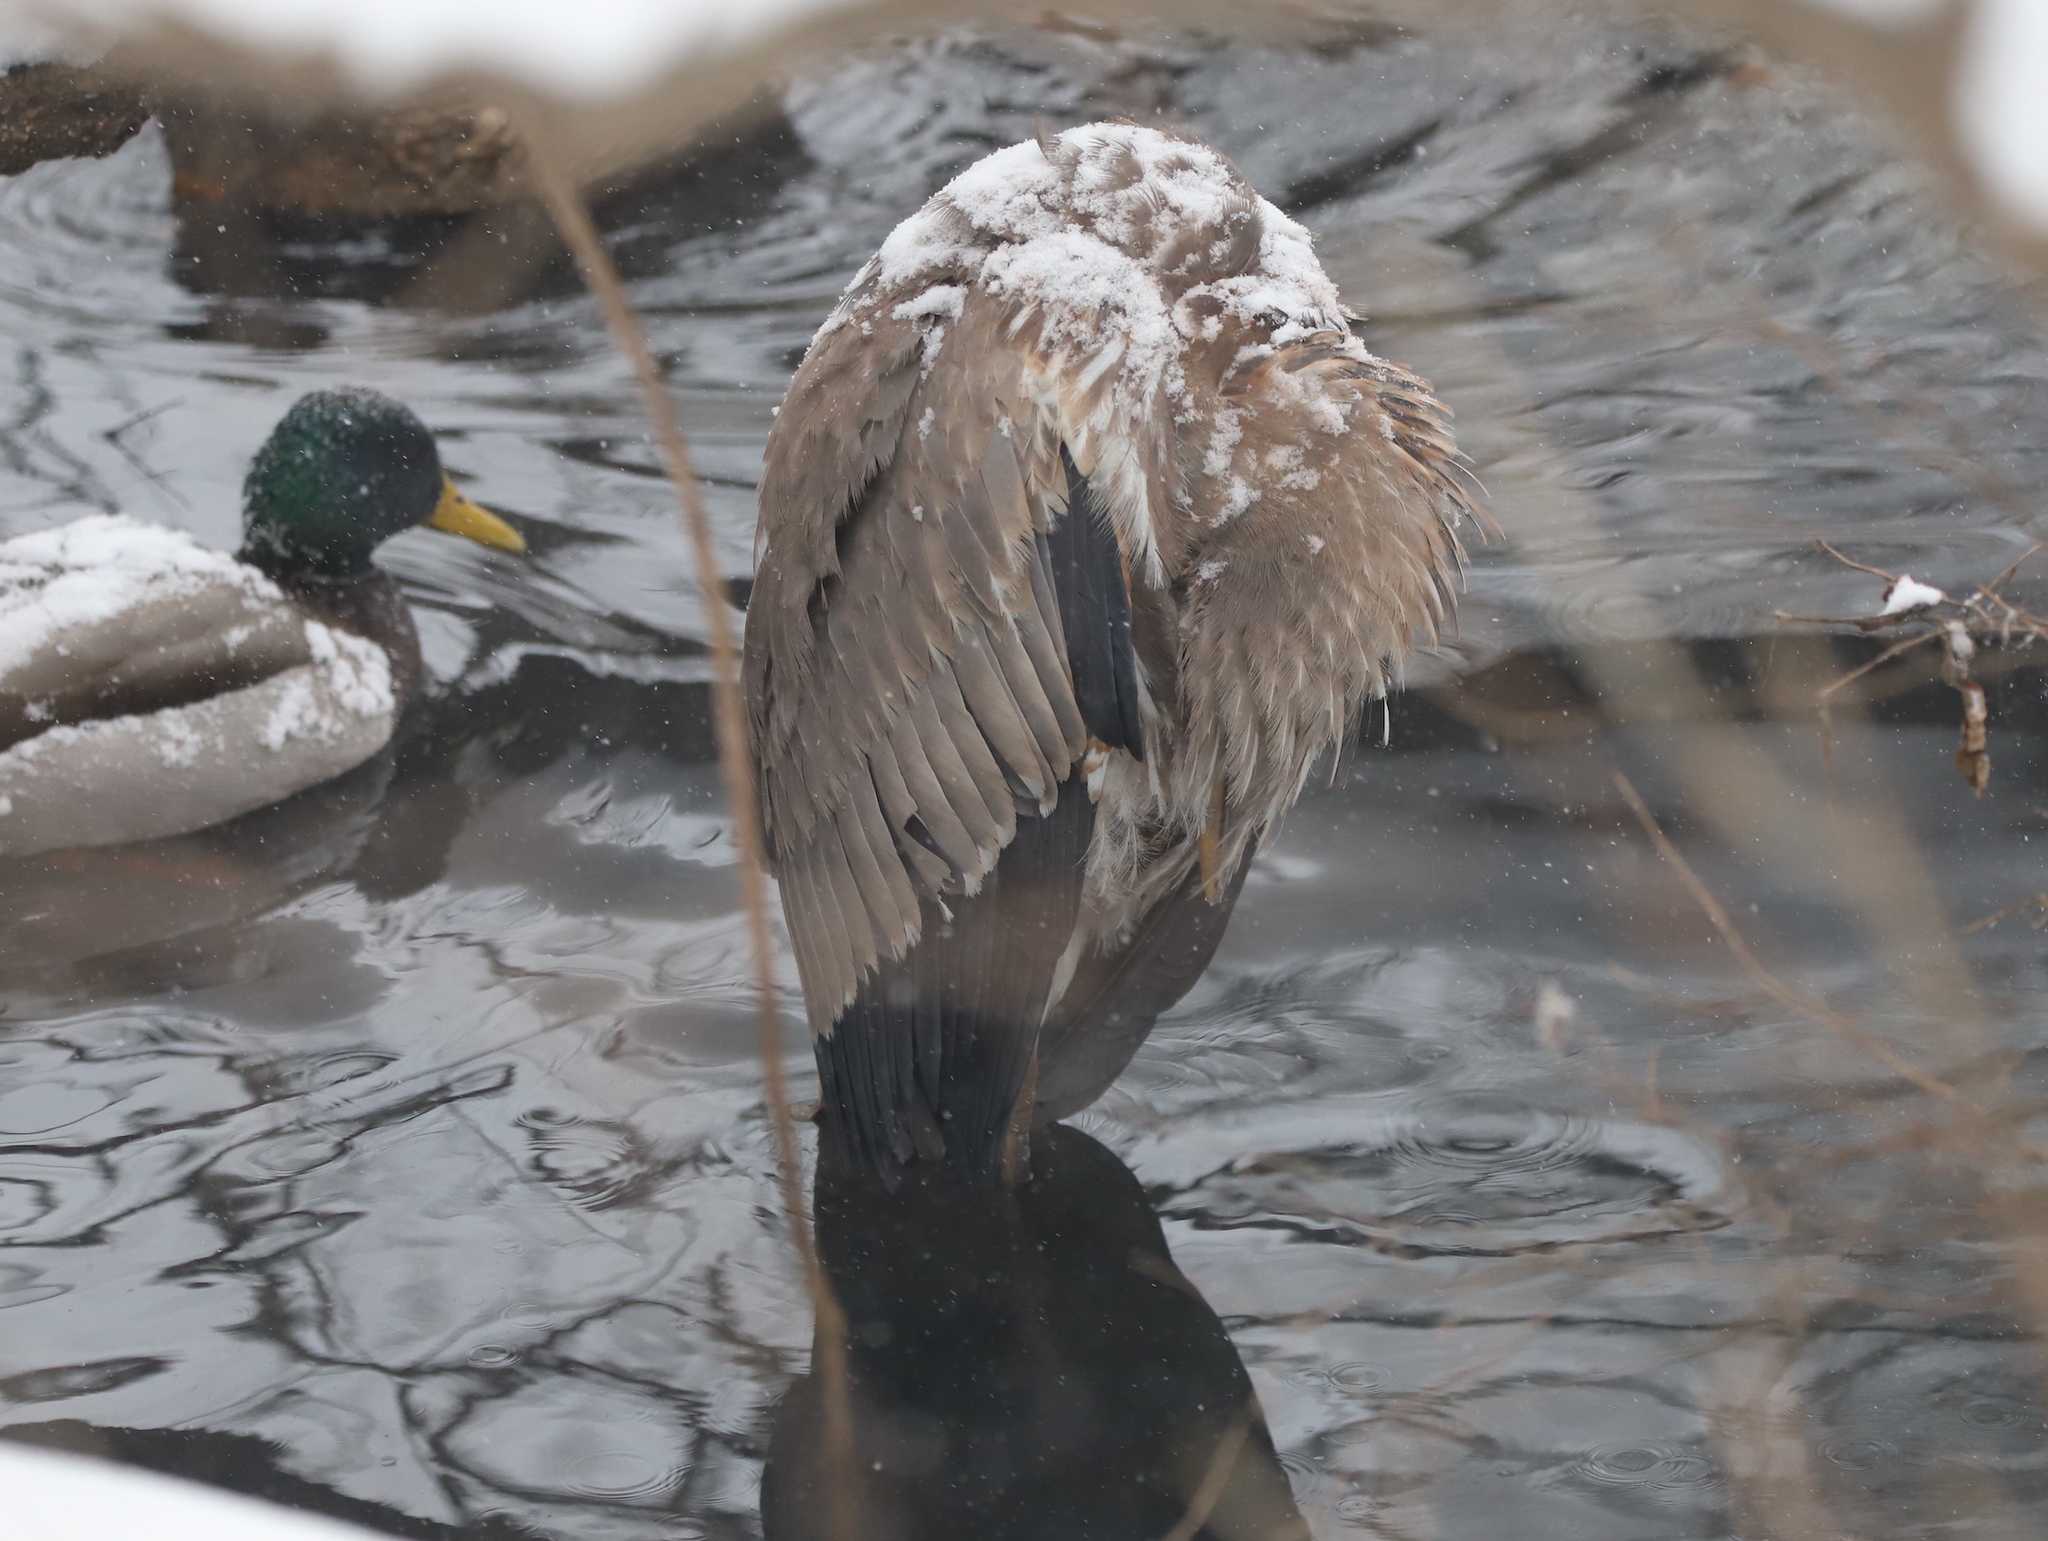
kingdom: Animalia
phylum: Chordata
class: Aves
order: Pelecaniformes
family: Ardeidae
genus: Ardea
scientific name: Ardea herodias
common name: Great blue heron
